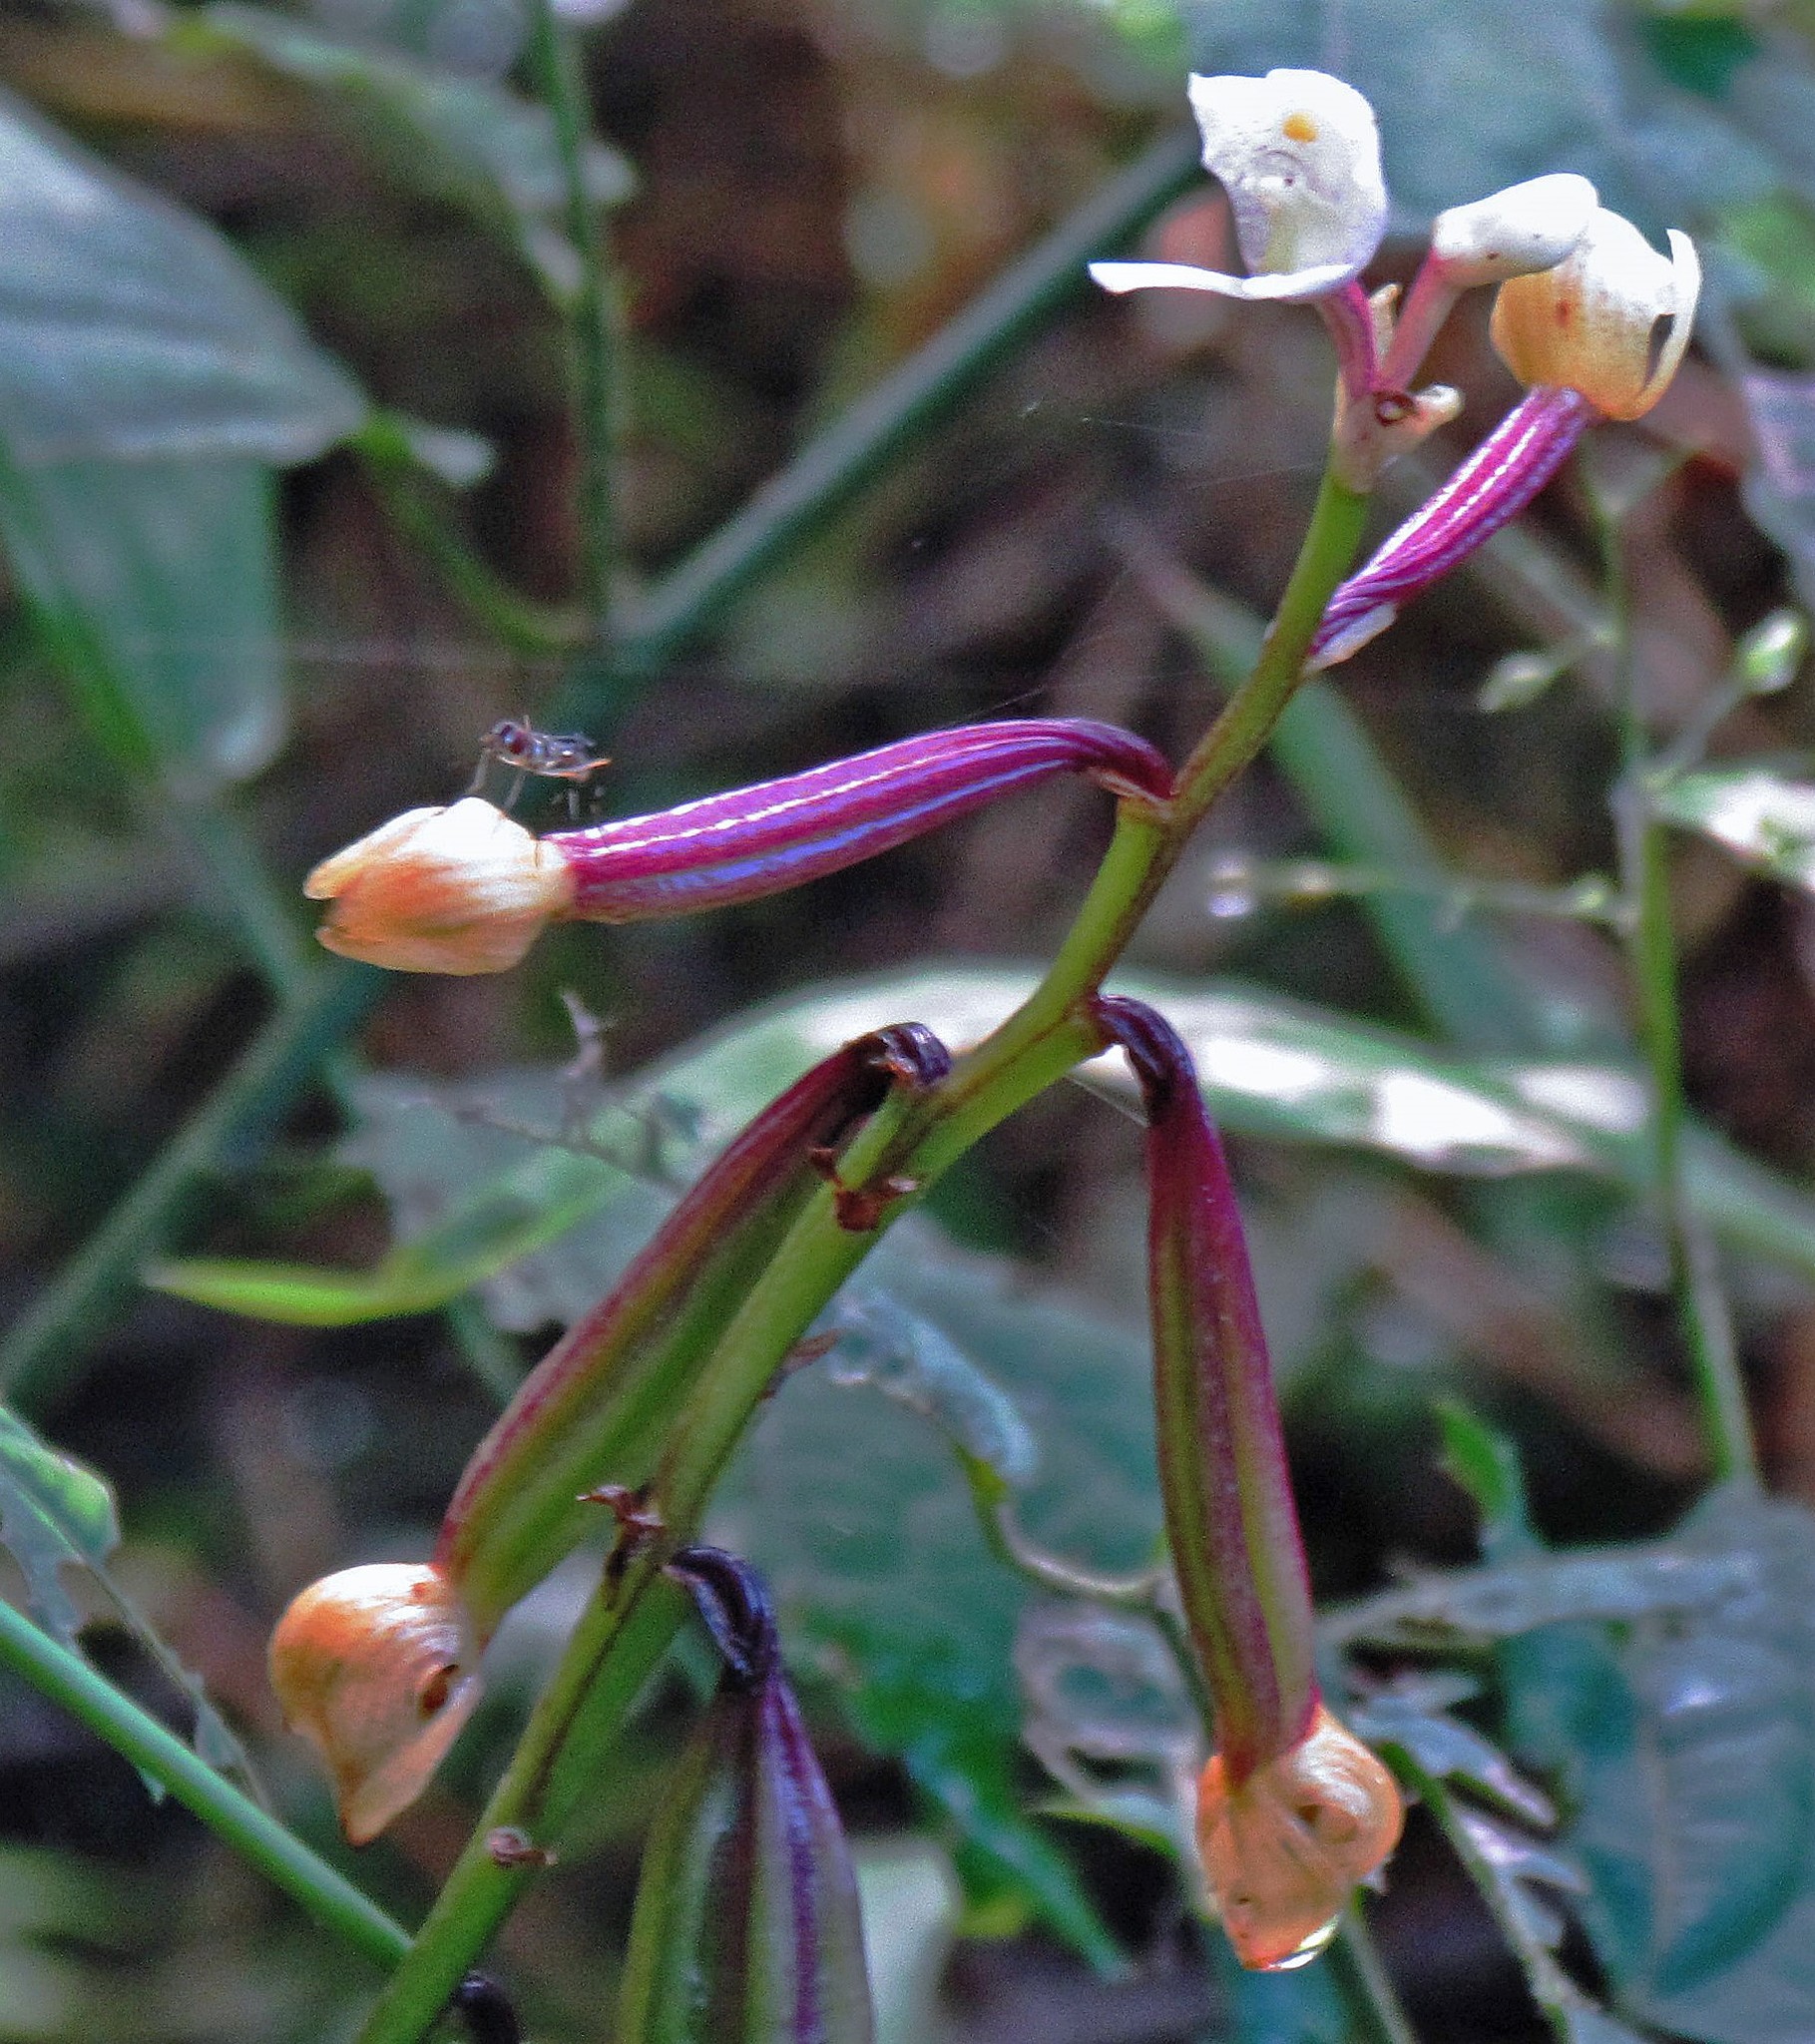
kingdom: Plantae
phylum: Tracheophyta
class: Liliopsida
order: Asparagales
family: Orchidaceae
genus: Govenia
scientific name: Govenia utriculata
